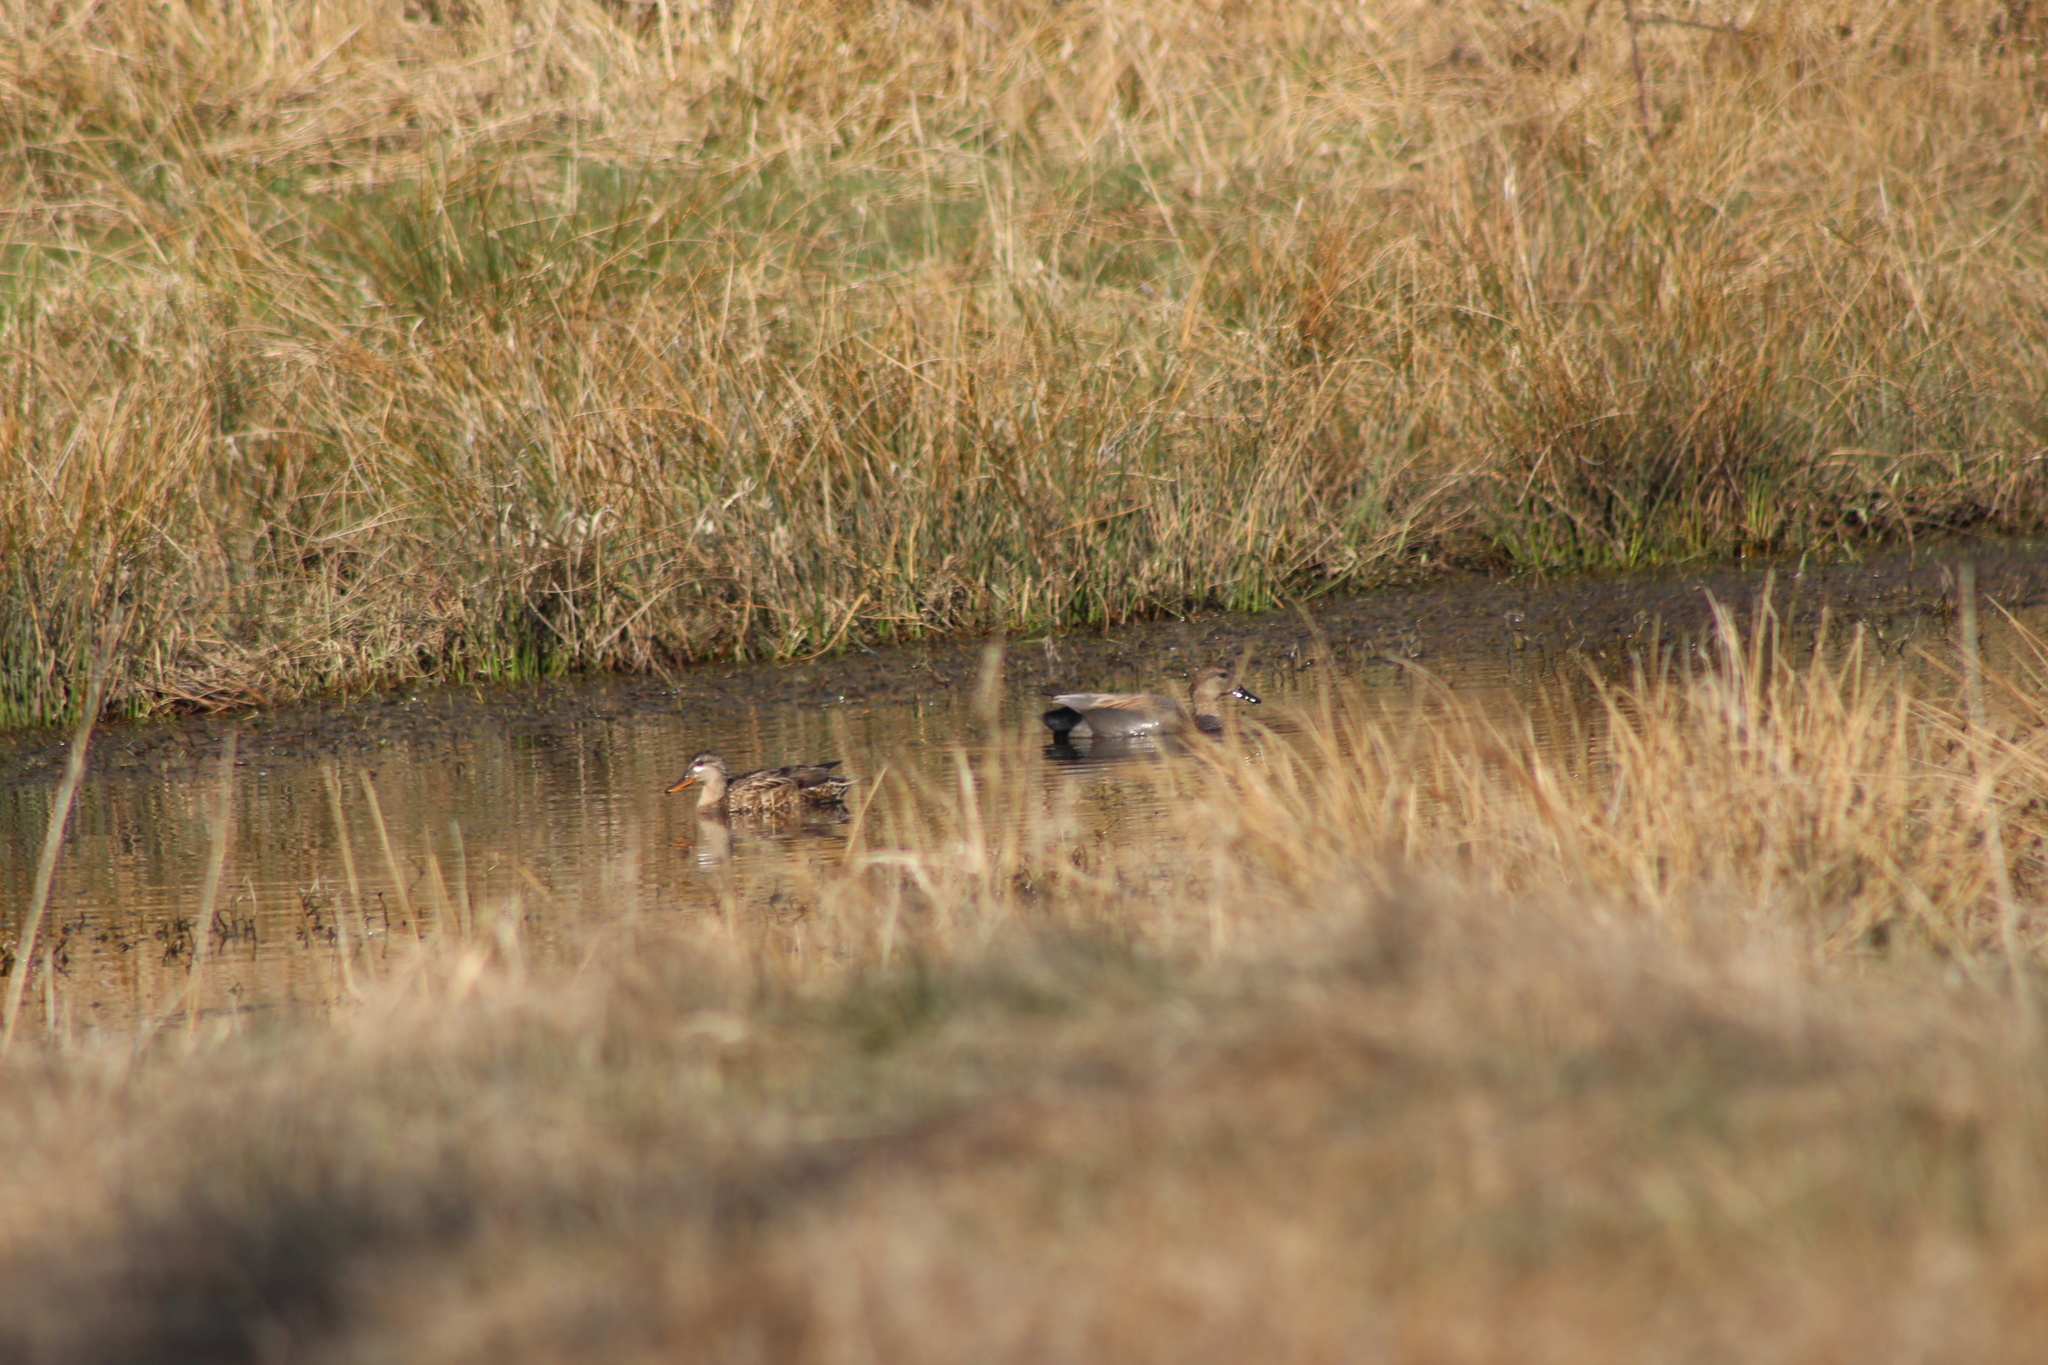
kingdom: Animalia
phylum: Chordata
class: Aves
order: Anseriformes
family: Anatidae
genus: Mareca
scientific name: Mareca strepera
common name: Gadwall
